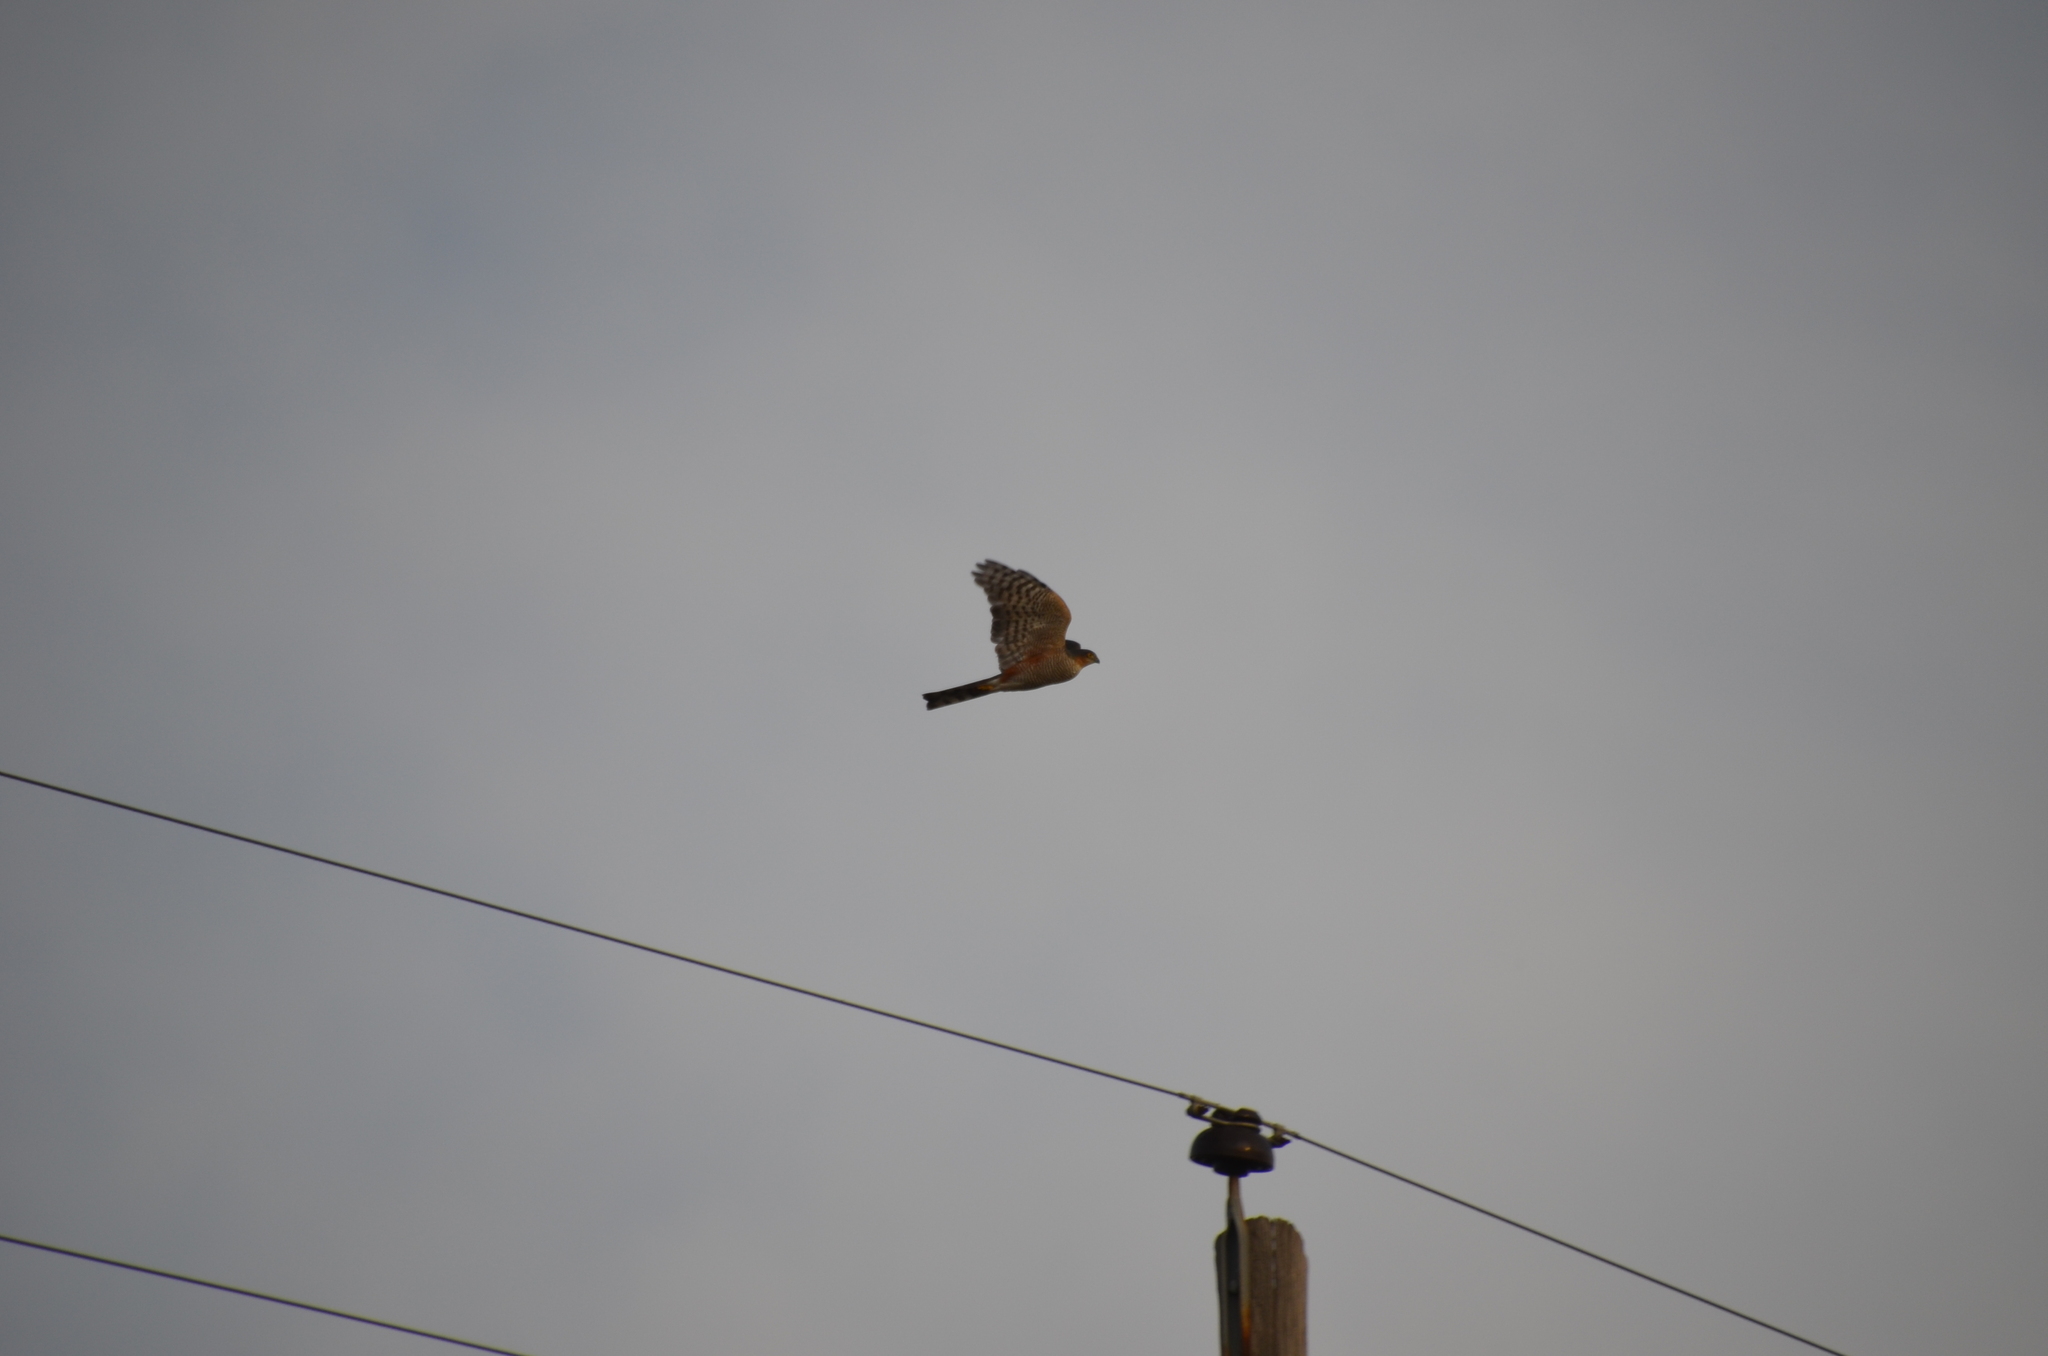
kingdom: Animalia
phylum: Chordata
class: Aves
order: Accipitriformes
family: Accipitridae
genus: Accipiter
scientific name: Accipiter striatus
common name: Sharp-shinned hawk
